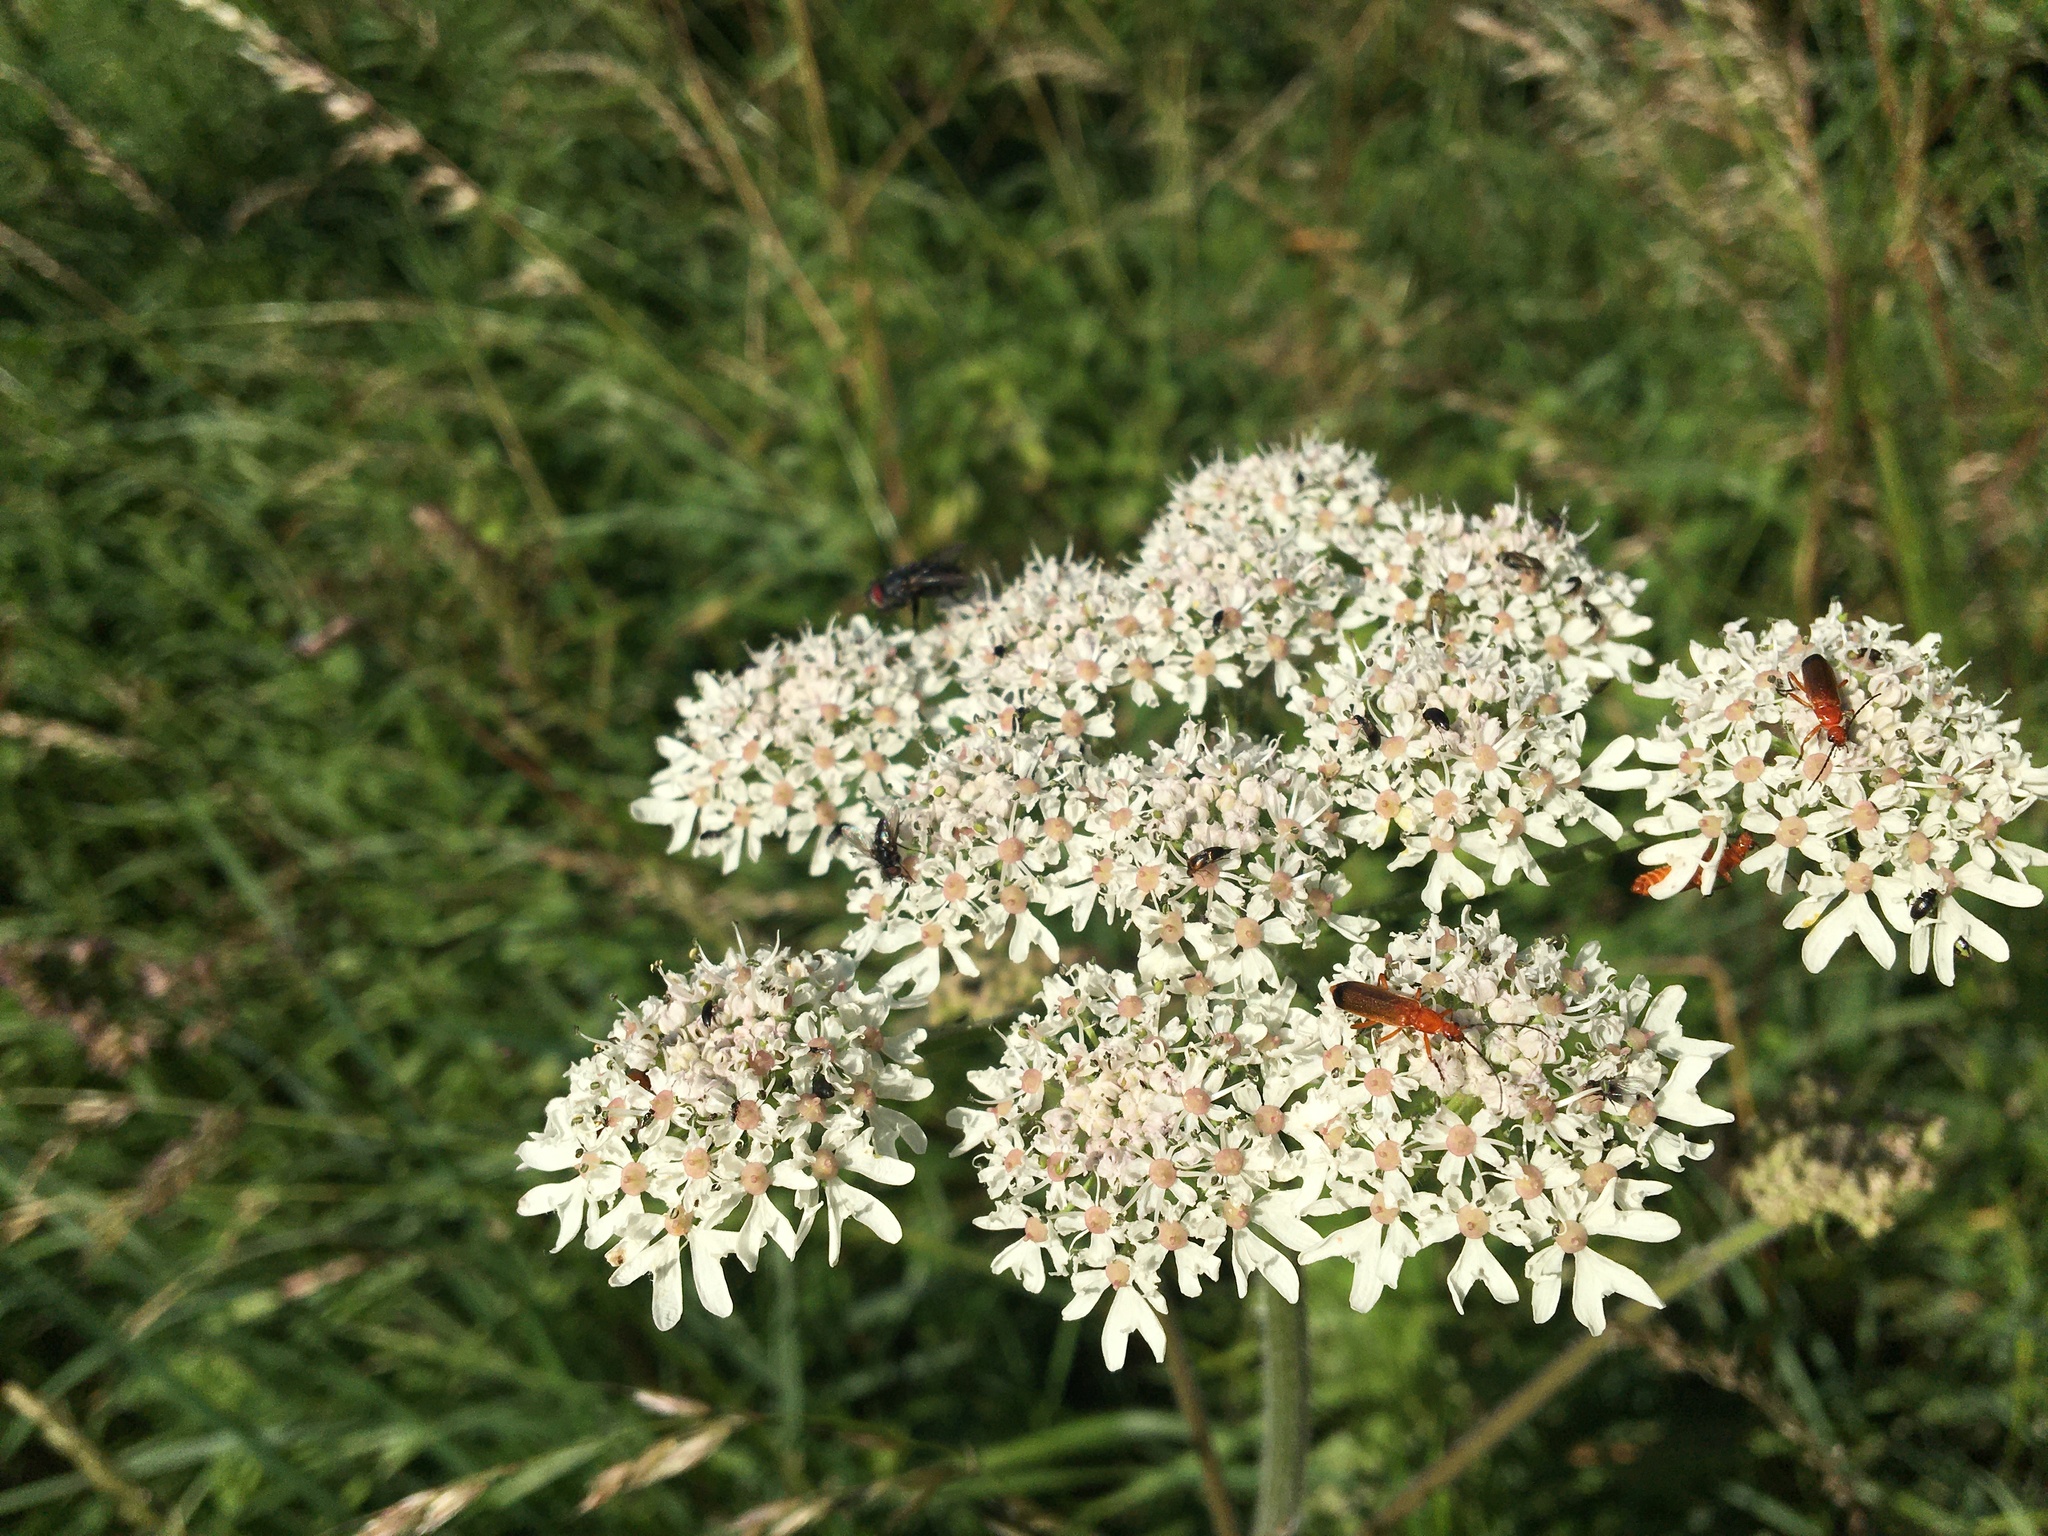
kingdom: Animalia
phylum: Arthropoda
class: Insecta
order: Coleoptera
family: Cantharidae
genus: Rhagonycha
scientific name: Rhagonycha fulva
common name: Common red soldier beetle
